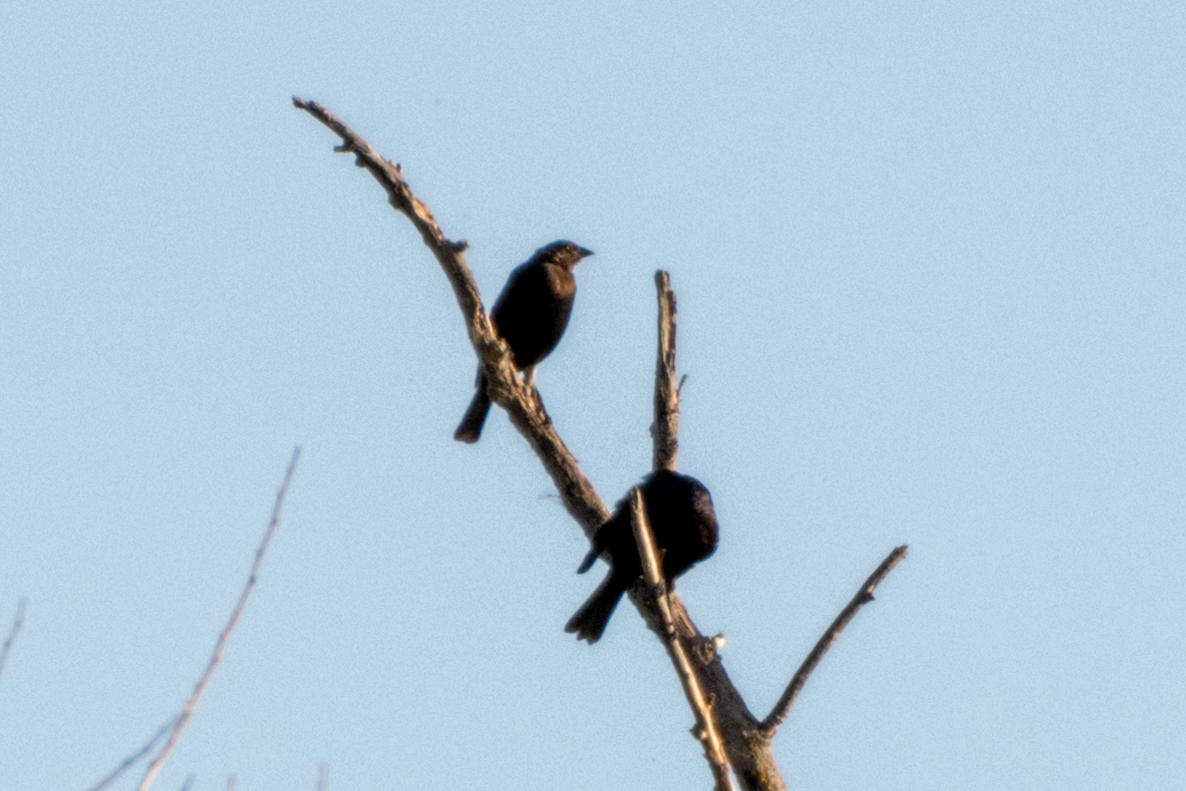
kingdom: Animalia
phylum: Chordata
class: Aves
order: Passeriformes
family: Icteridae
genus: Euphagus
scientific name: Euphagus cyanocephalus
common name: Brewer's blackbird
